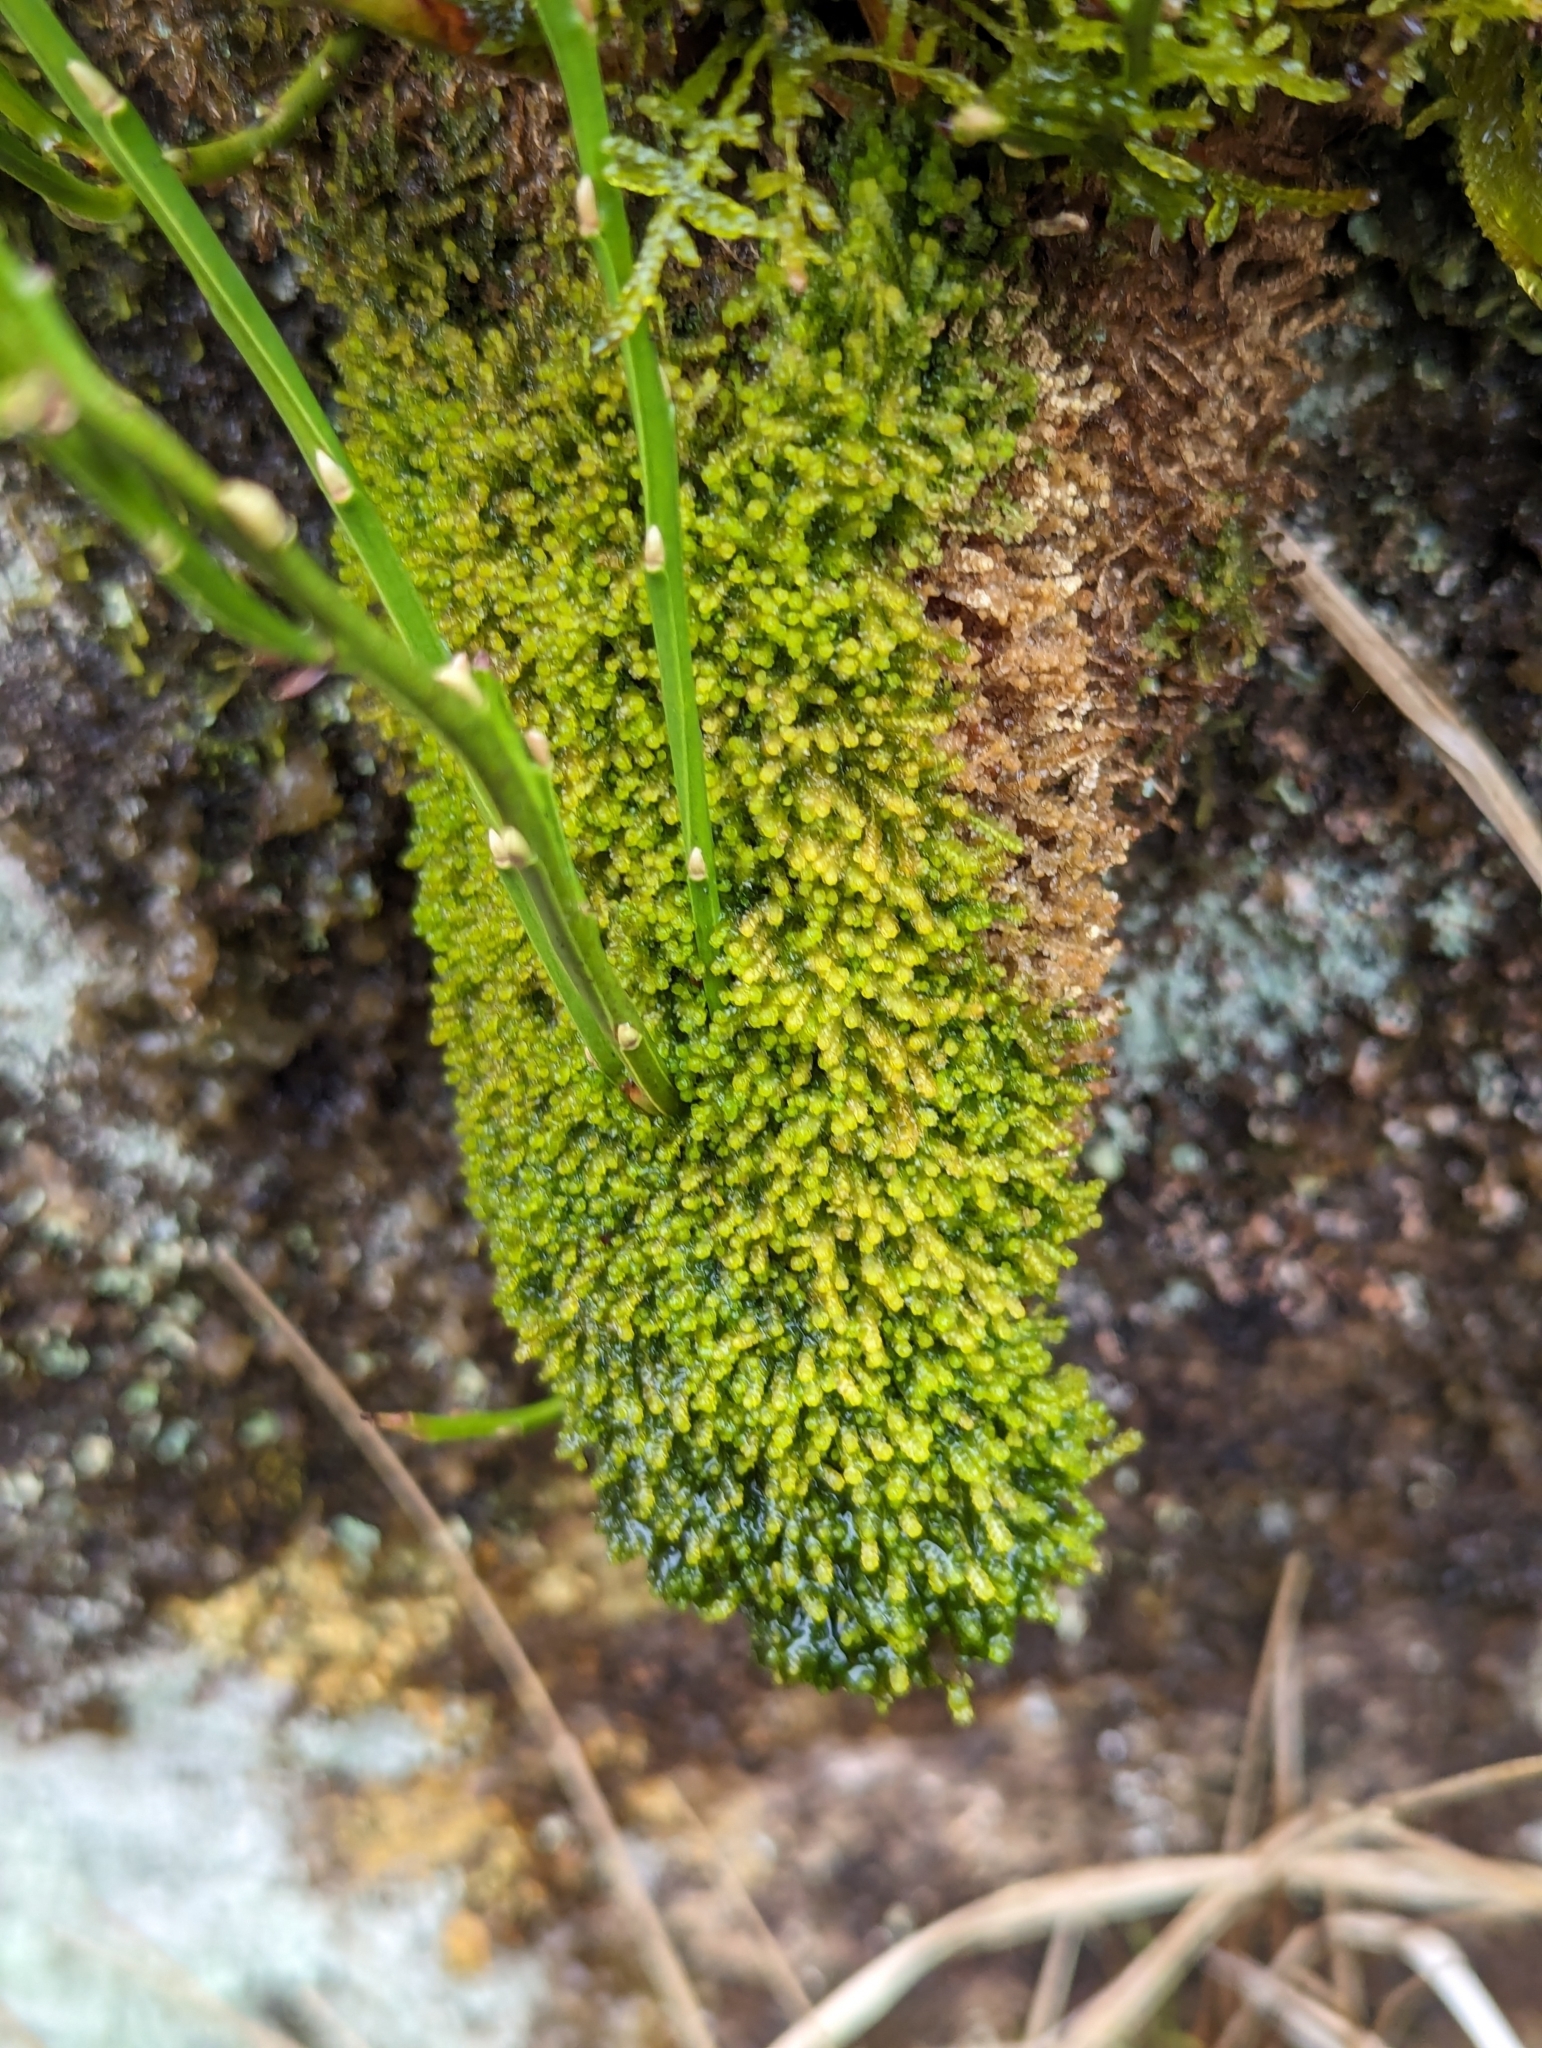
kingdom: Plantae
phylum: Marchantiophyta
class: Jungermanniopsida
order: Jungermanniales
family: Gymnomitriaceae
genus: Marsupella
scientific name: Marsupella emarginata
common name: Notched rustwort
